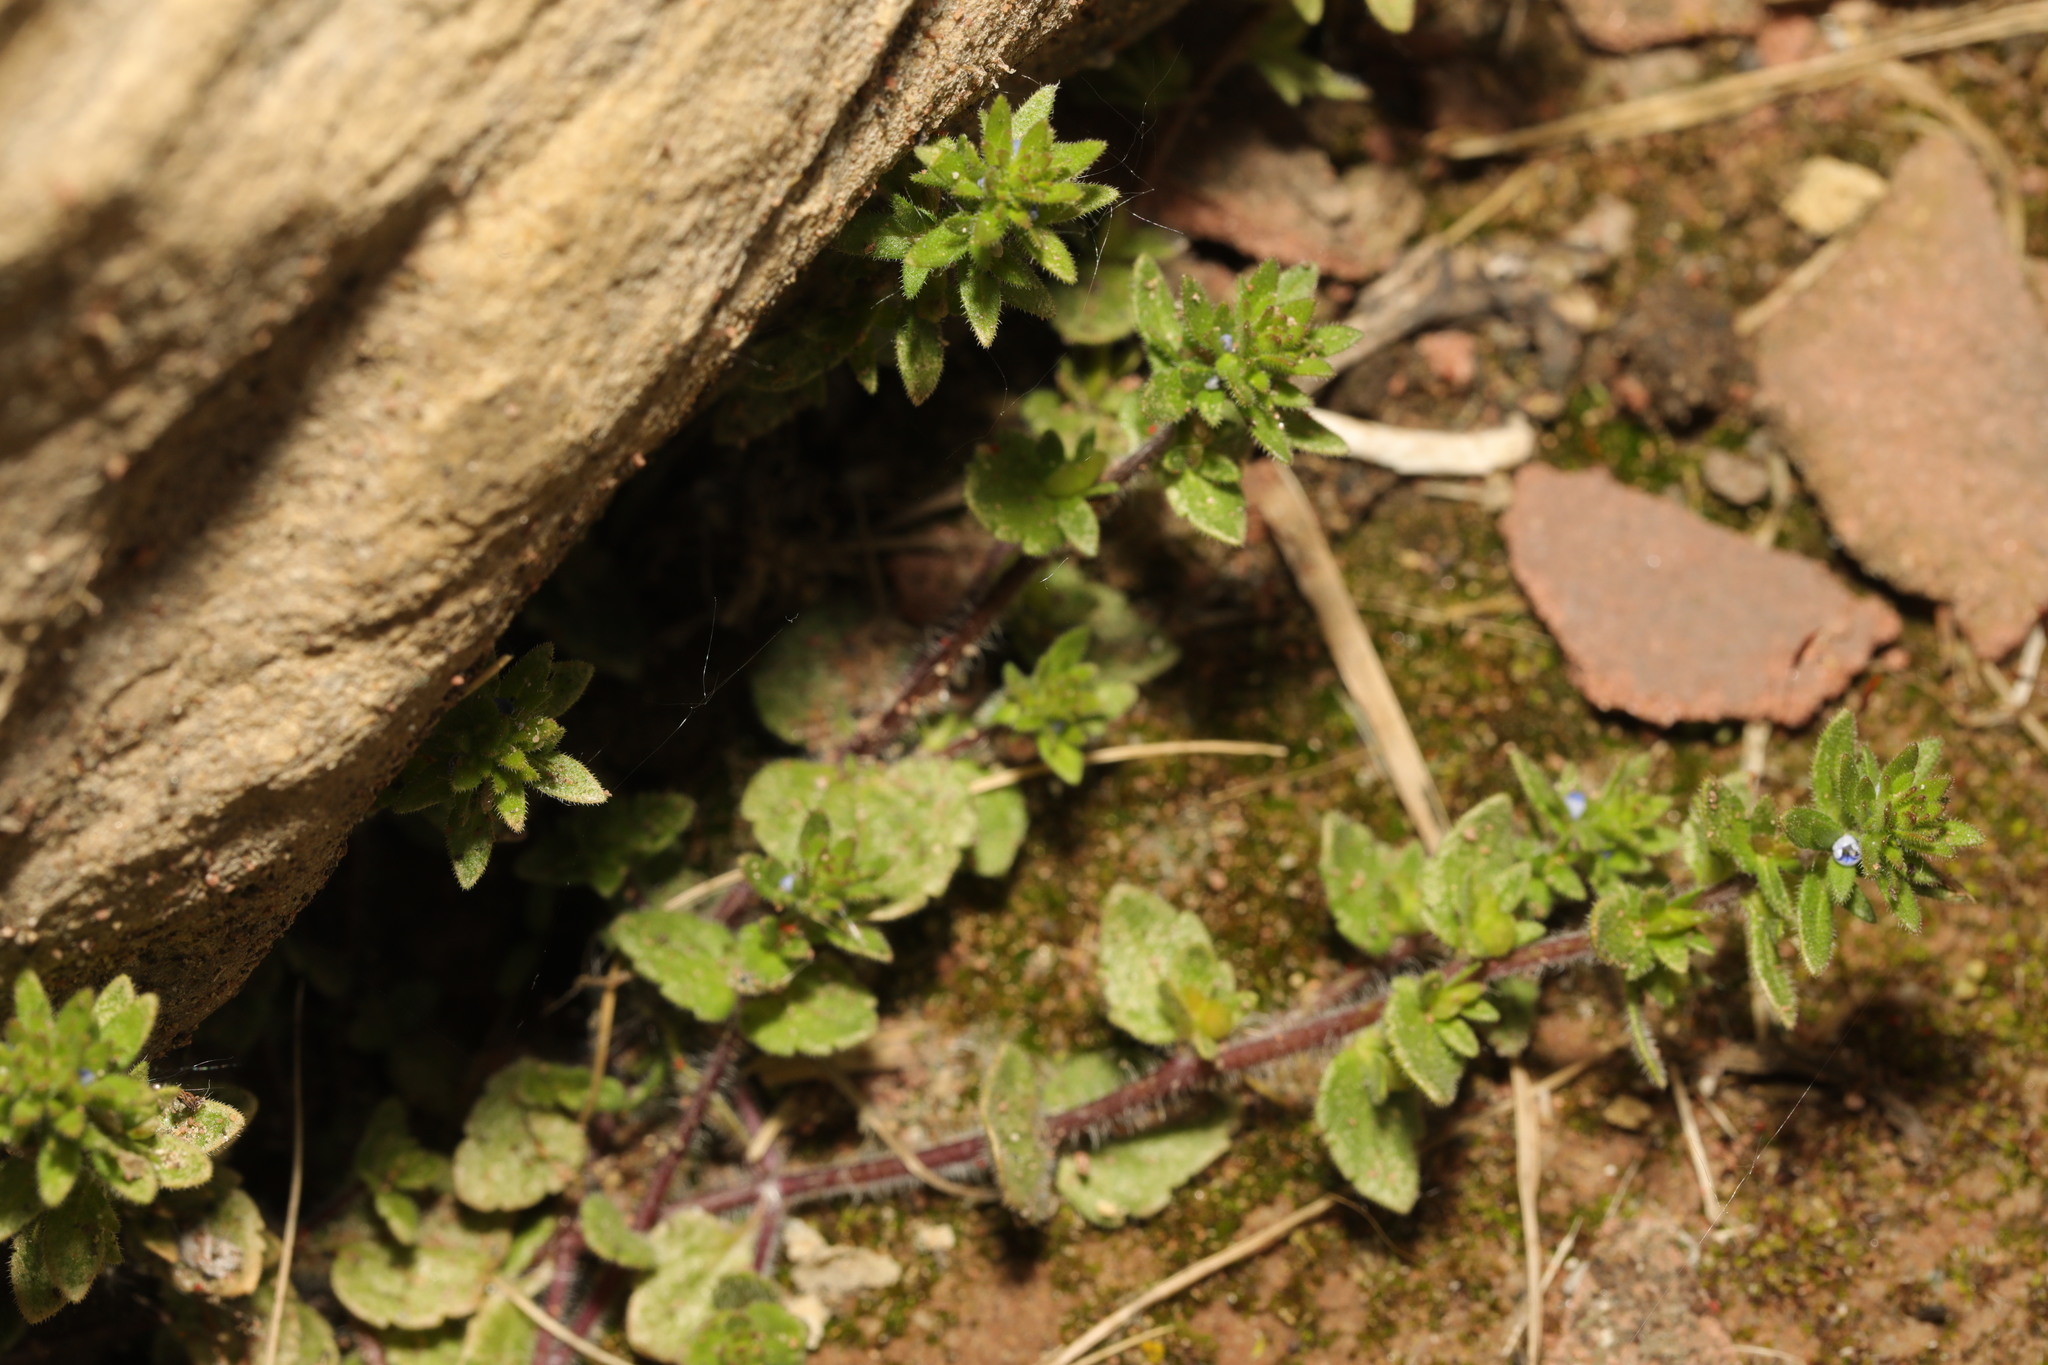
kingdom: Plantae
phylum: Tracheophyta
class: Magnoliopsida
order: Lamiales
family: Plantaginaceae
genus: Veronica
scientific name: Veronica arvensis
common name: Corn speedwell
